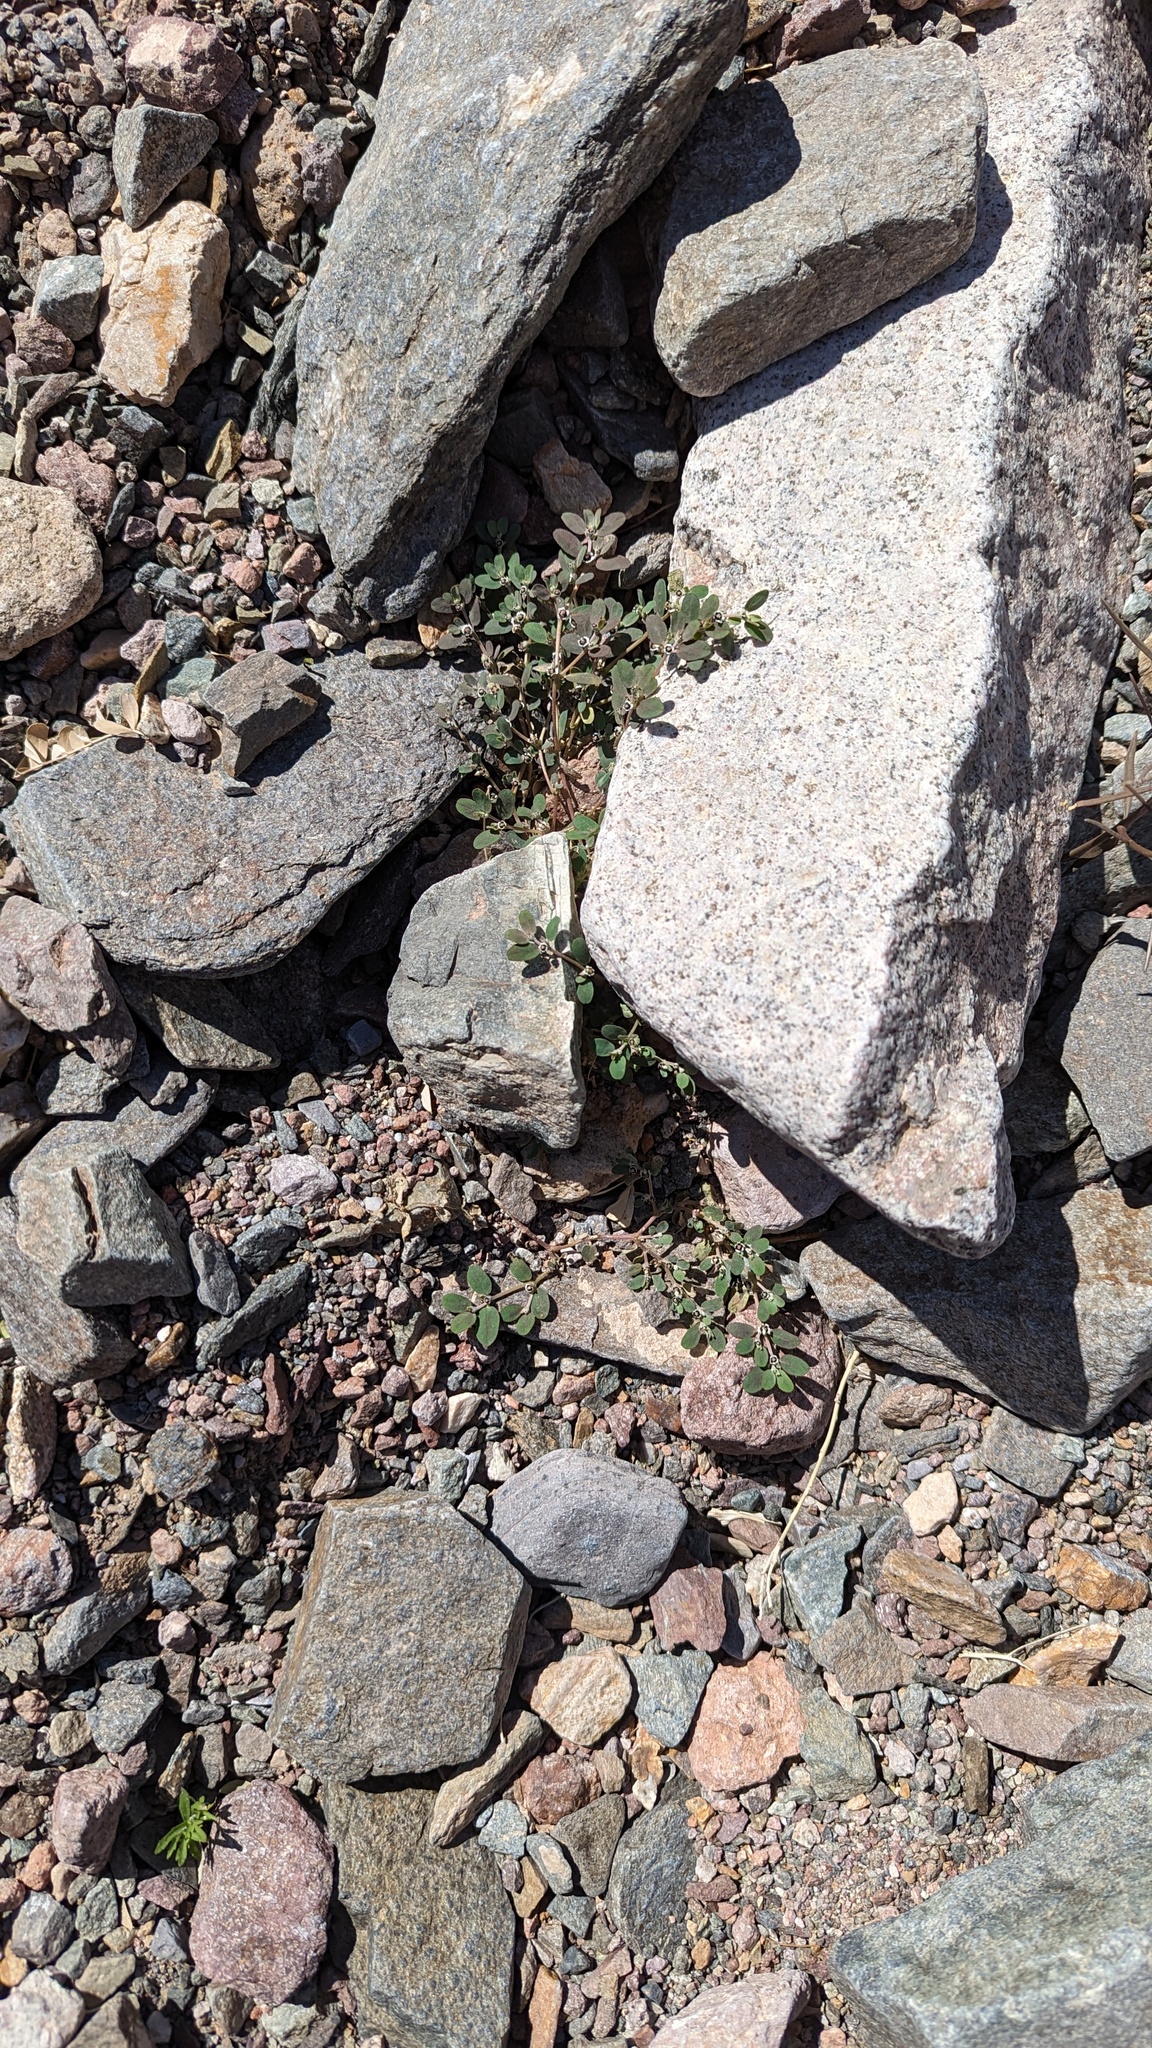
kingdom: Plantae
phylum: Tracheophyta
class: Magnoliopsida
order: Malpighiales
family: Euphorbiaceae
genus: Euphorbia
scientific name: Euphorbia pediculifera
